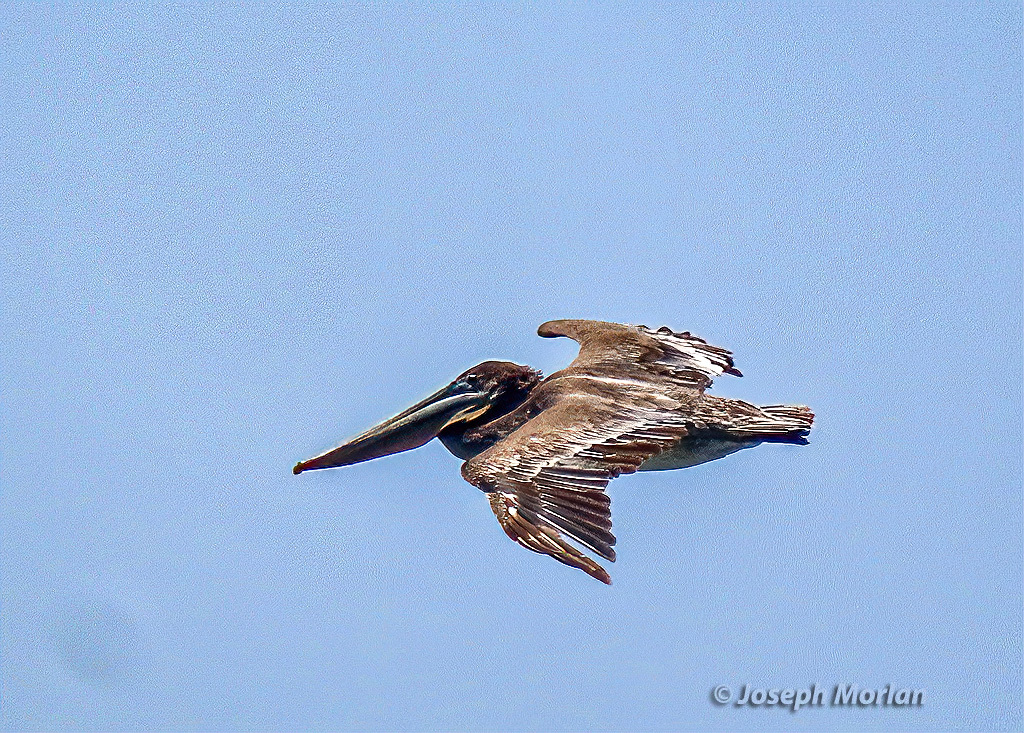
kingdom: Animalia
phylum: Chordata
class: Aves
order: Pelecaniformes
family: Pelecanidae
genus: Pelecanus
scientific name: Pelecanus occidentalis
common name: Brown pelican
